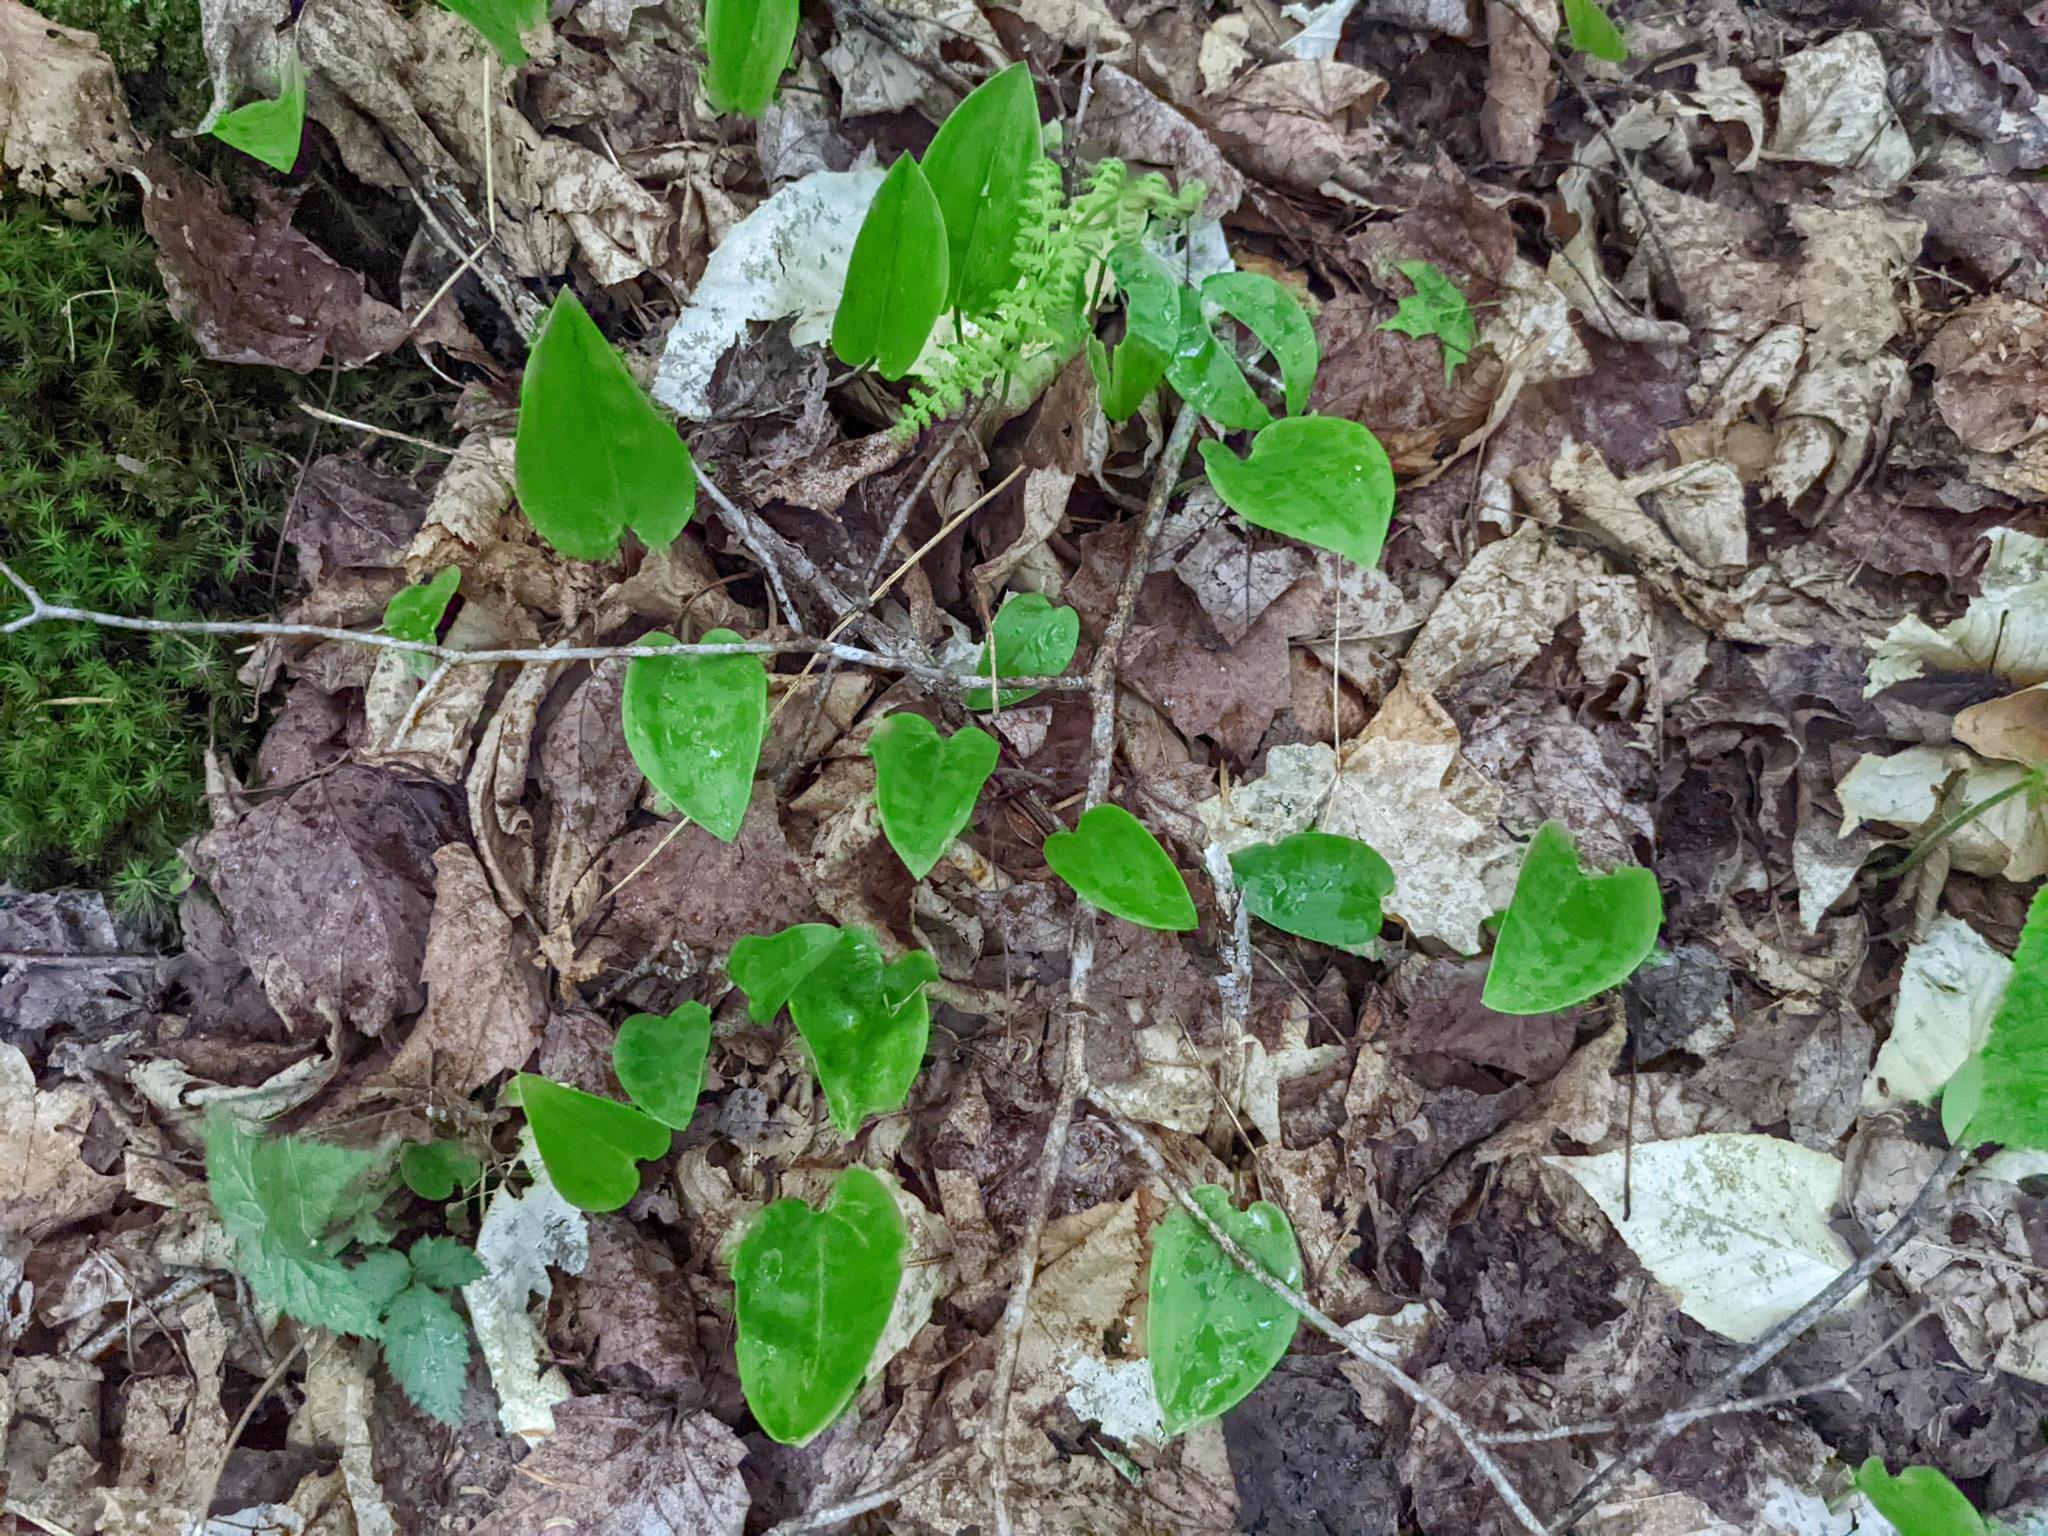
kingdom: Plantae
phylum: Tracheophyta
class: Liliopsida
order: Asparagales
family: Asparagaceae
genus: Maianthemum
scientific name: Maianthemum canadense
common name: False lily-of-the-valley
